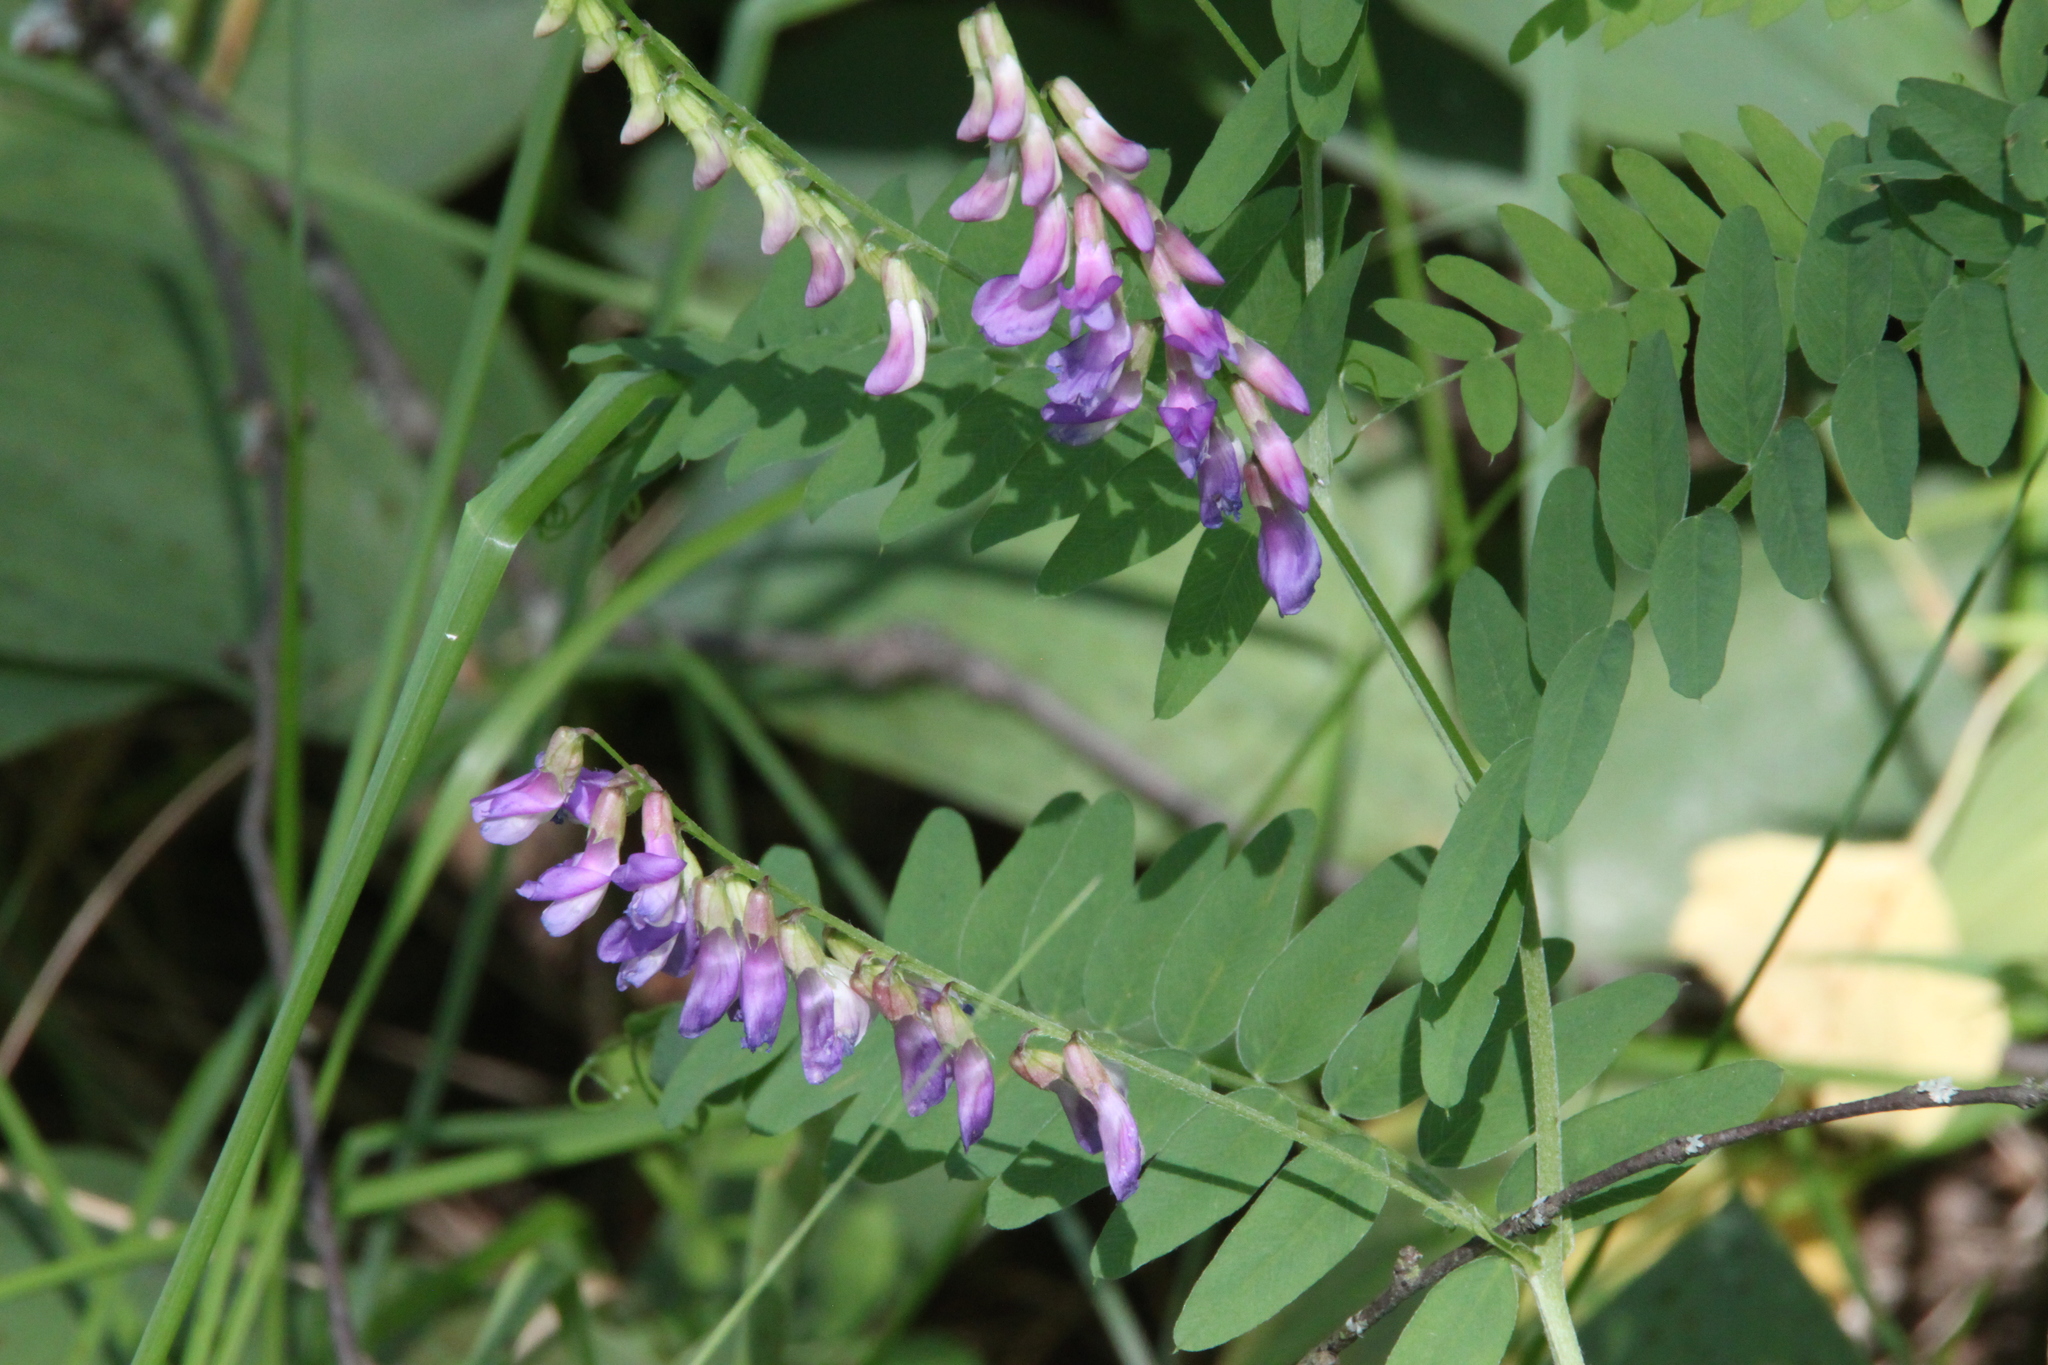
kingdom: Plantae
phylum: Tracheophyta
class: Magnoliopsida
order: Fabales
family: Fabaceae
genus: Vicia
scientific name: Vicia cracca
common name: Bird vetch
